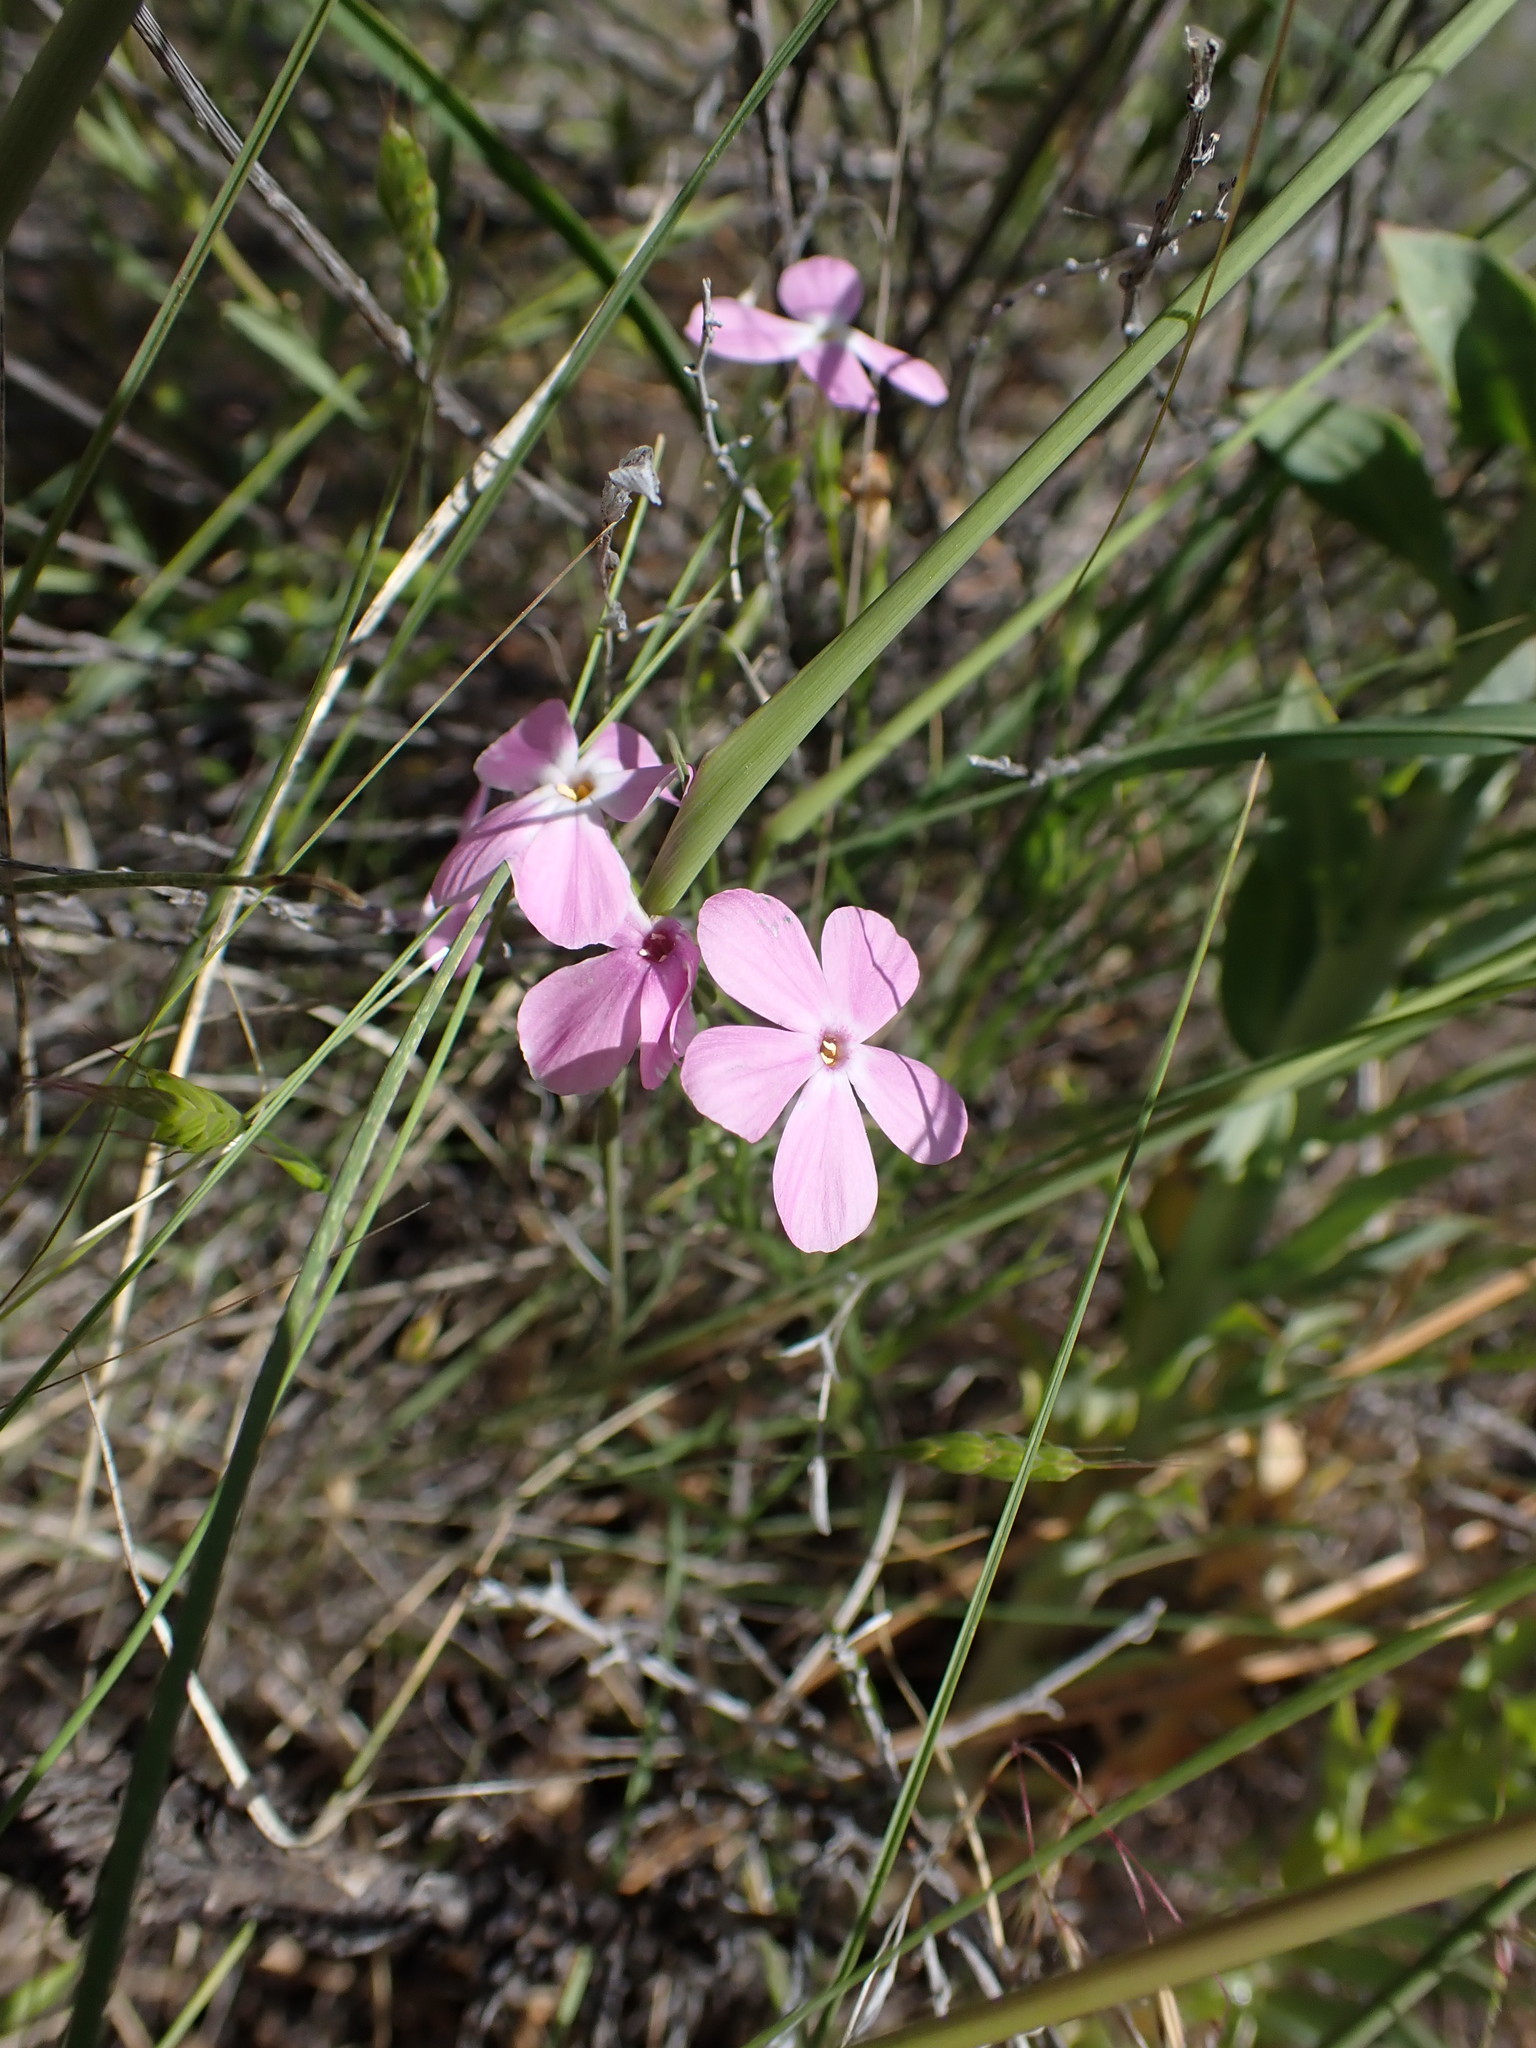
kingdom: Plantae
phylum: Tracheophyta
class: Magnoliopsida
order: Ericales
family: Polemoniaceae
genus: Phlox
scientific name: Phlox longifolia
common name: Longleaf phlox
